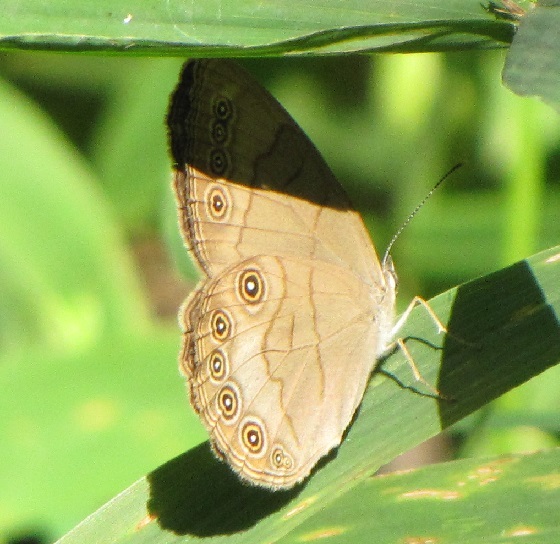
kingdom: Animalia
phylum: Arthropoda
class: Insecta
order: Lepidoptera
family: Nymphalidae
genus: Lethe
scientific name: Lethe eurydice
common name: Eyed brown
